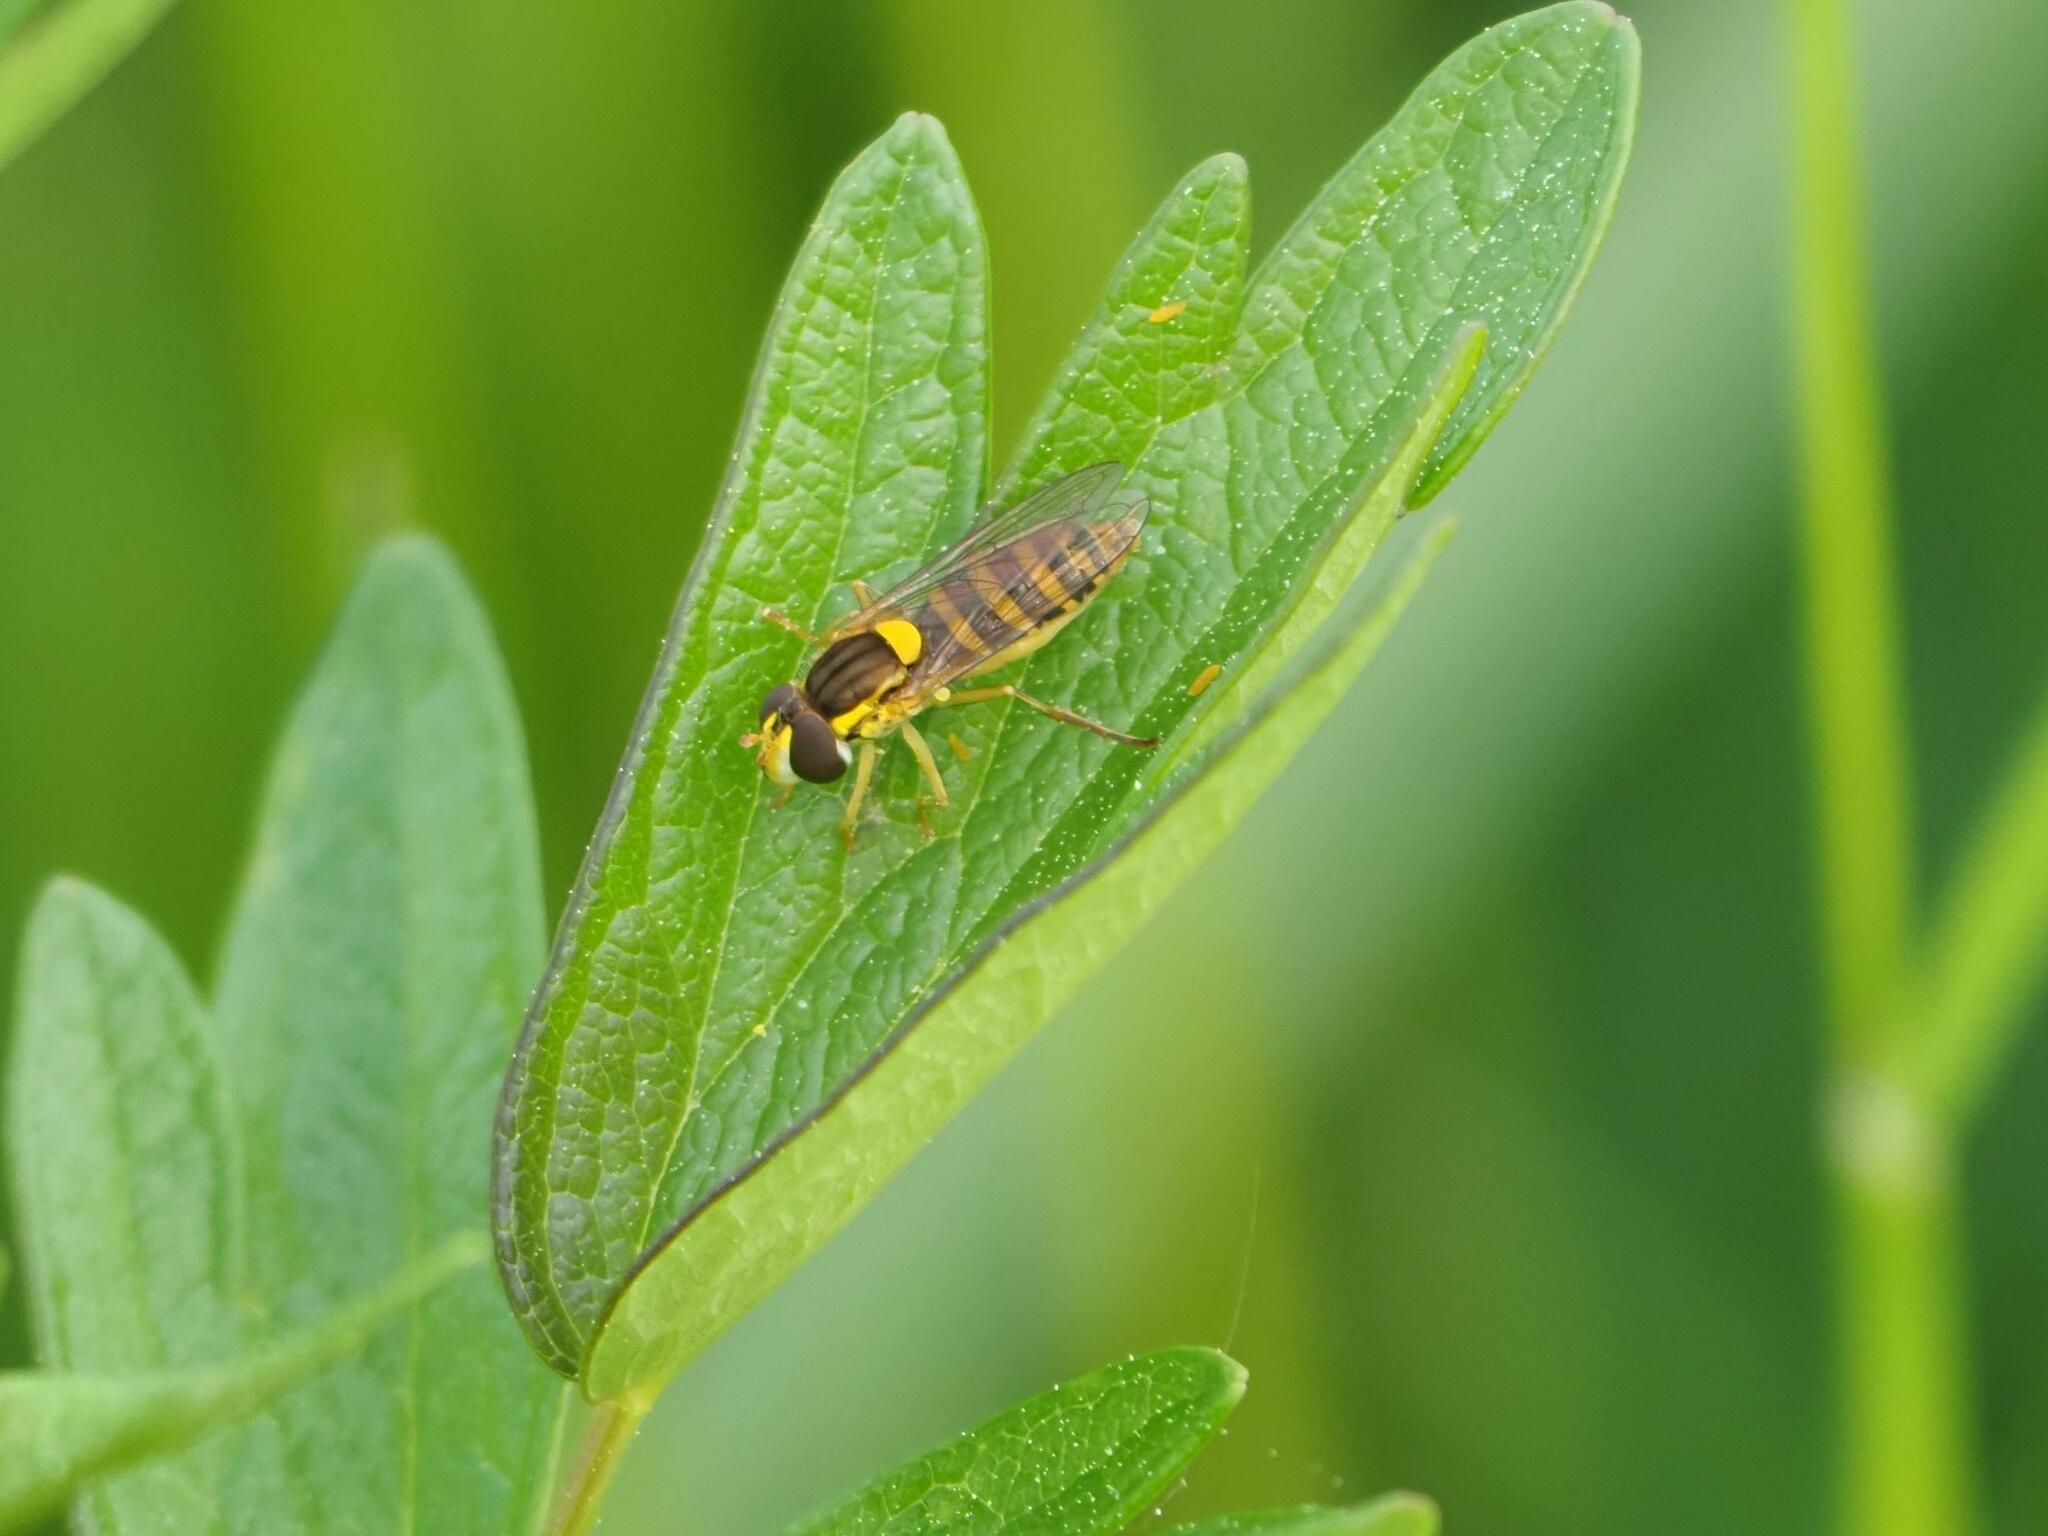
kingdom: Animalia
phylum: Arthropoda
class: Insecta
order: Diptera
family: Syrphidae
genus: Sphaerophoria
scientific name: Sphaerophoria
